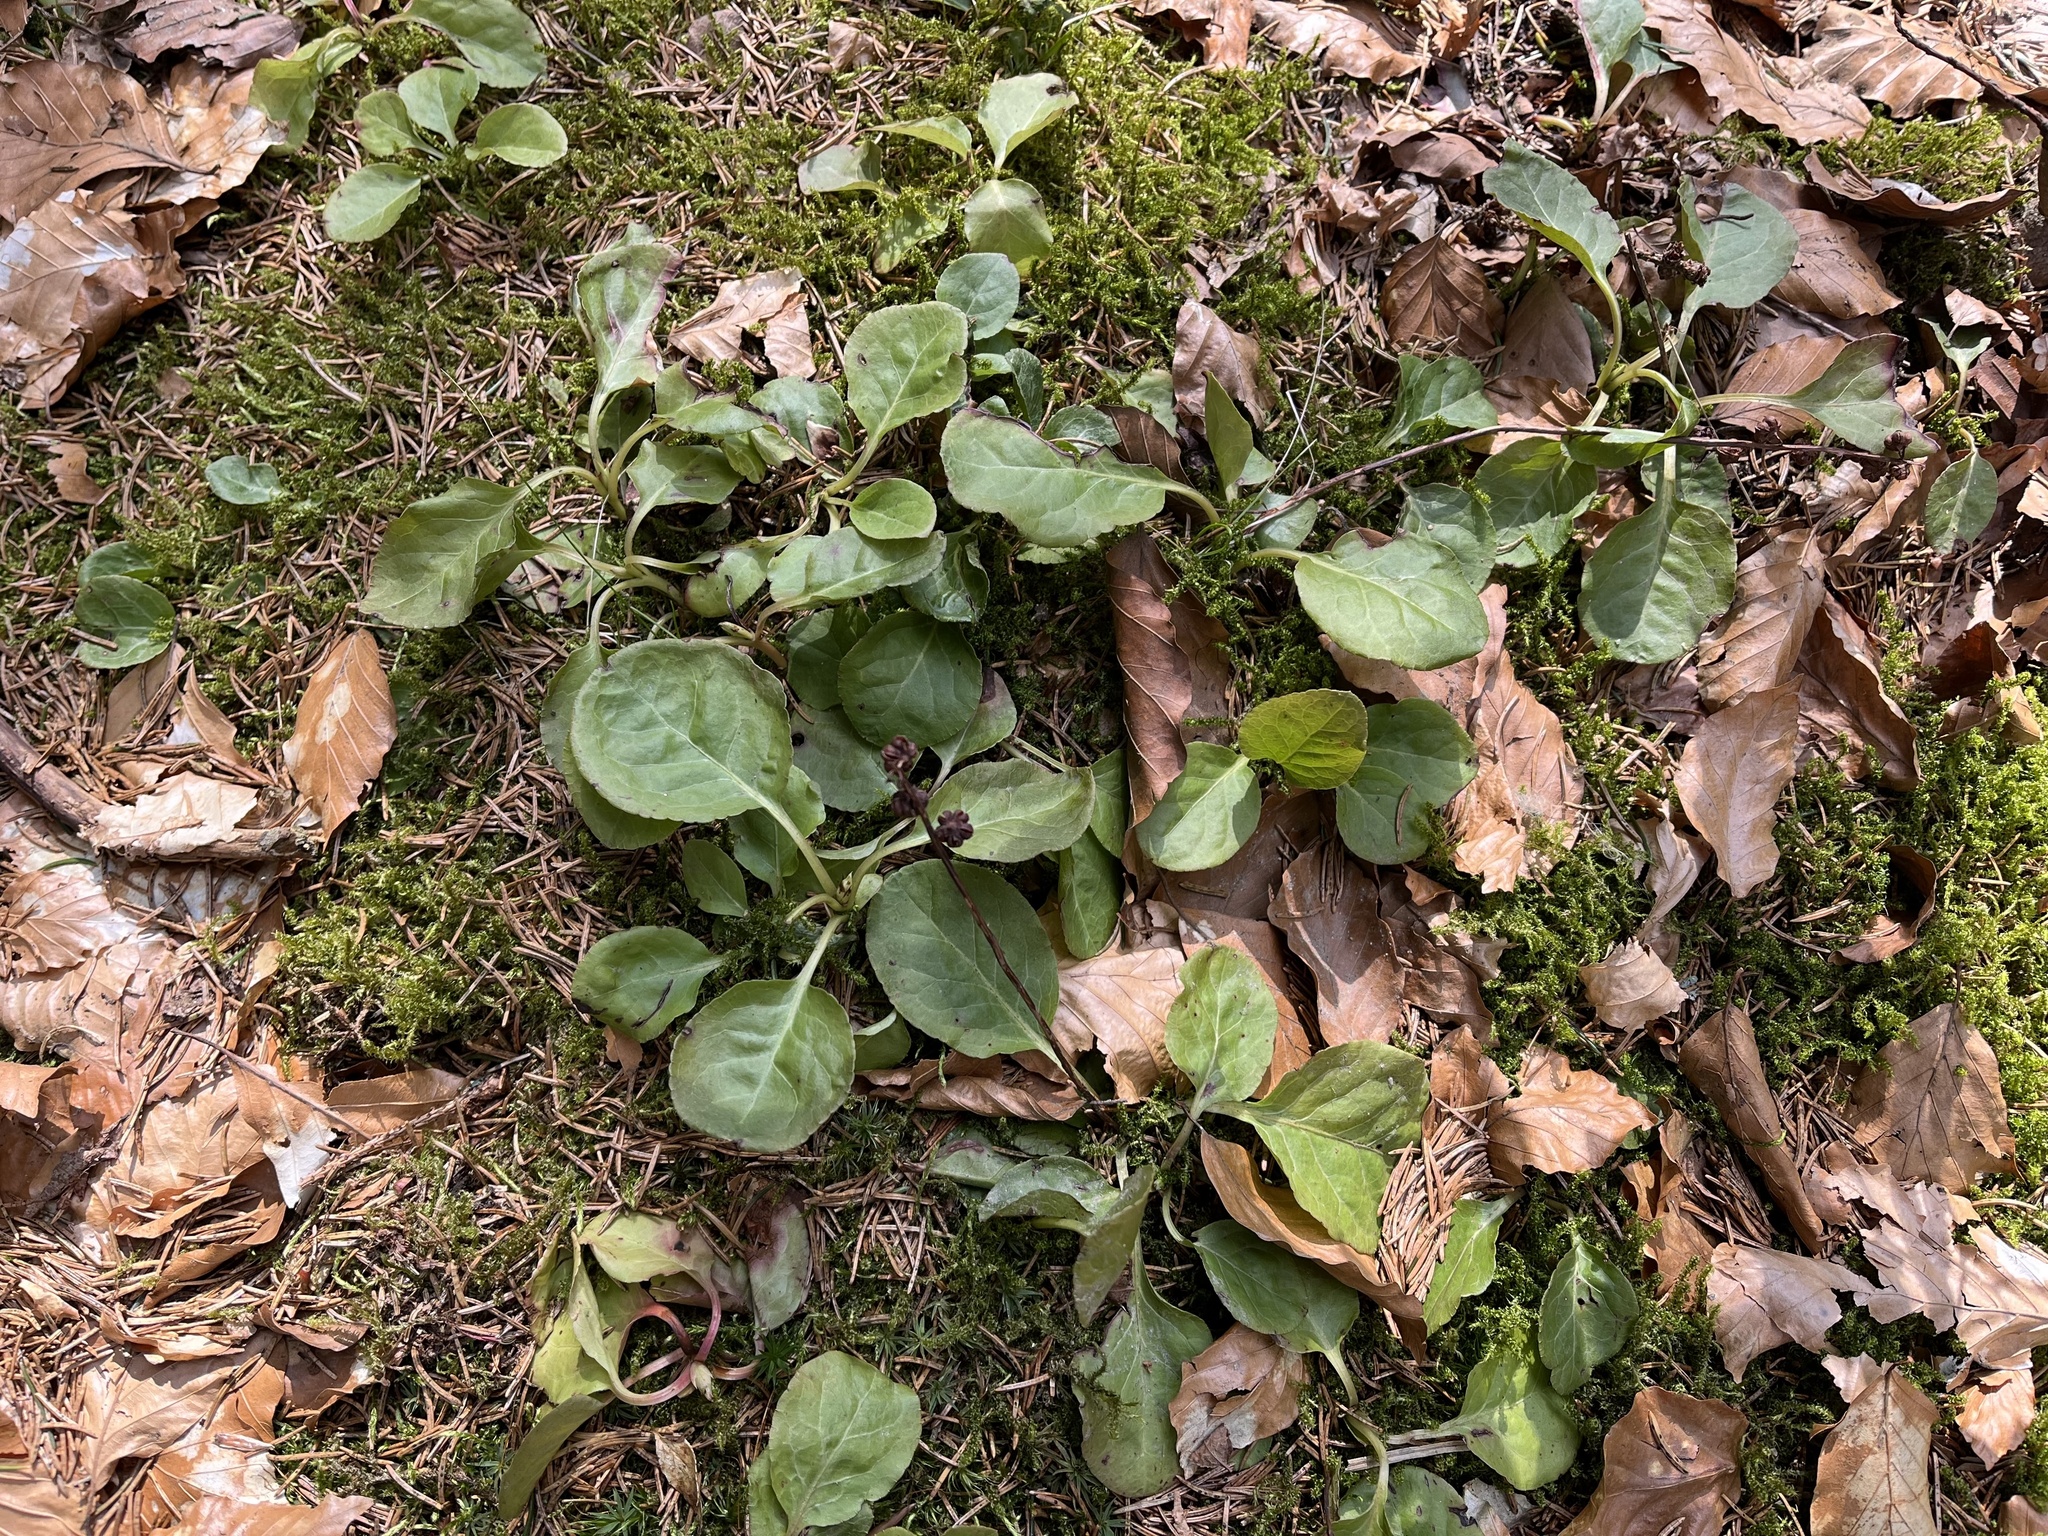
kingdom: Plantae
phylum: Tracheophyta
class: Magnoliopsida
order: Ericales
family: Ericaceae
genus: Pyrola
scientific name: Pyrola minor
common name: Common wintergreen
